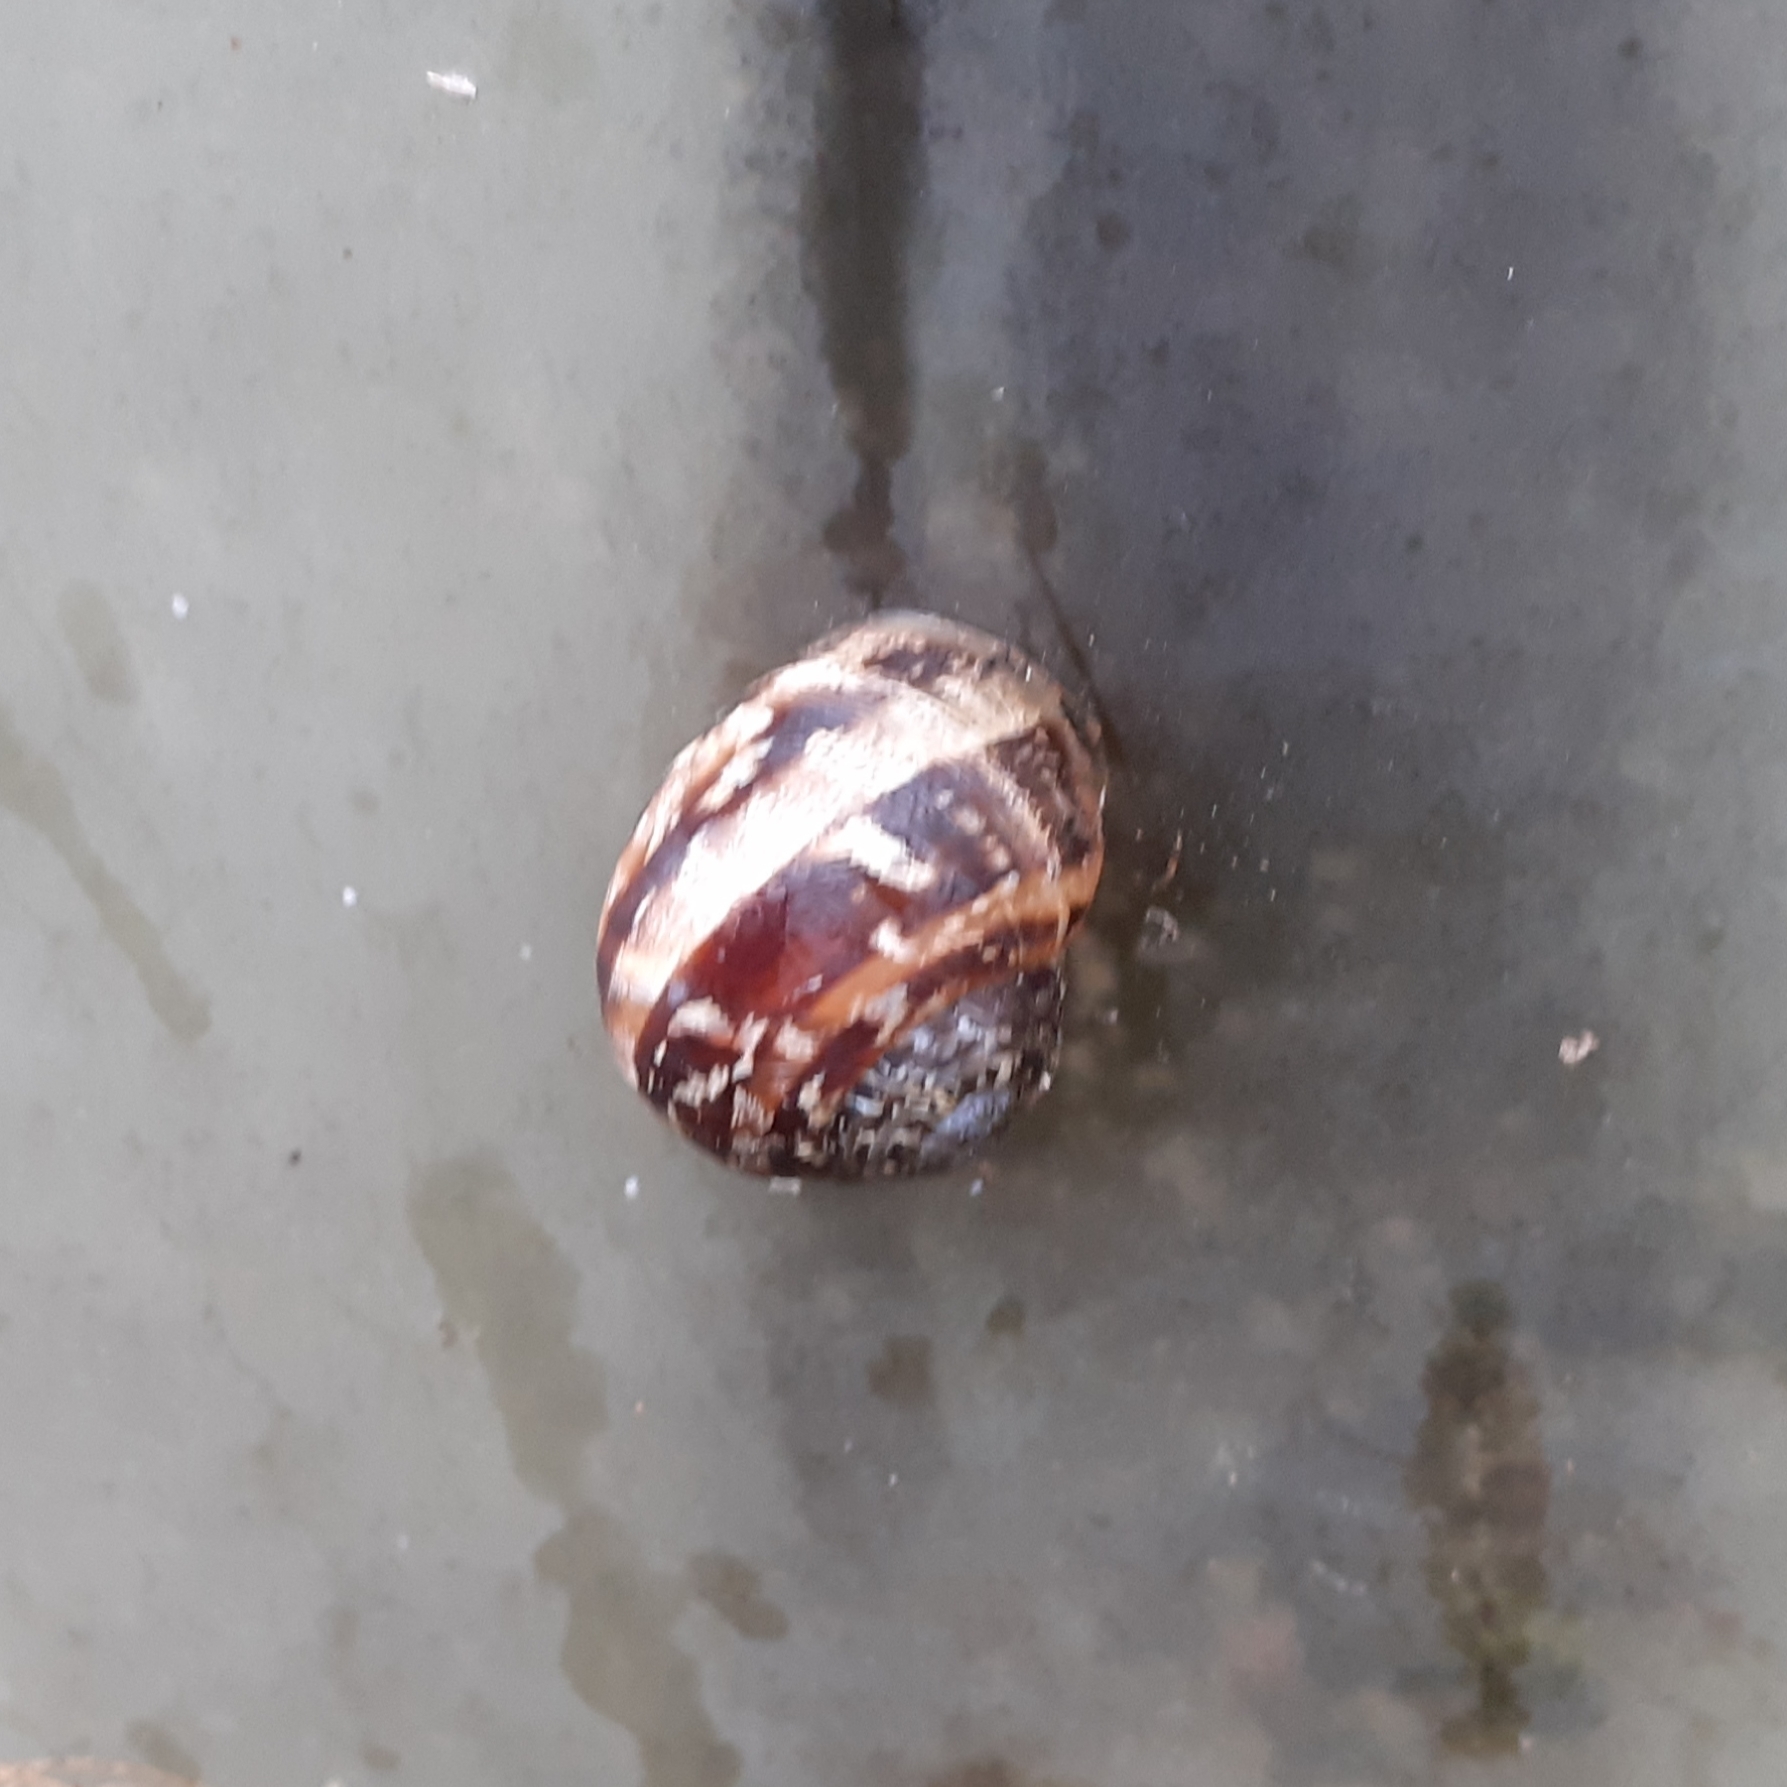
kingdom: Animalia
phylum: Mollusca
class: Gastropoda
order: Stylommatophora
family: Helicidae
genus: Cornu
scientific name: Cornu aspersum
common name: Brown garden snail
